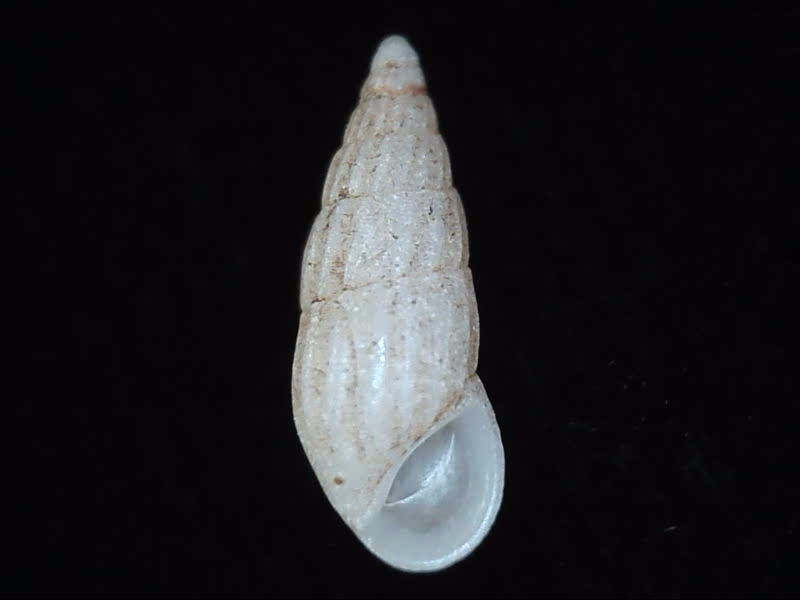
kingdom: Animalia
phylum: Mollusca
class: Gastropoda
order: Littorinimorpha
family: Rissoinidae
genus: Rissoina
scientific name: Rissoina chathamensis
